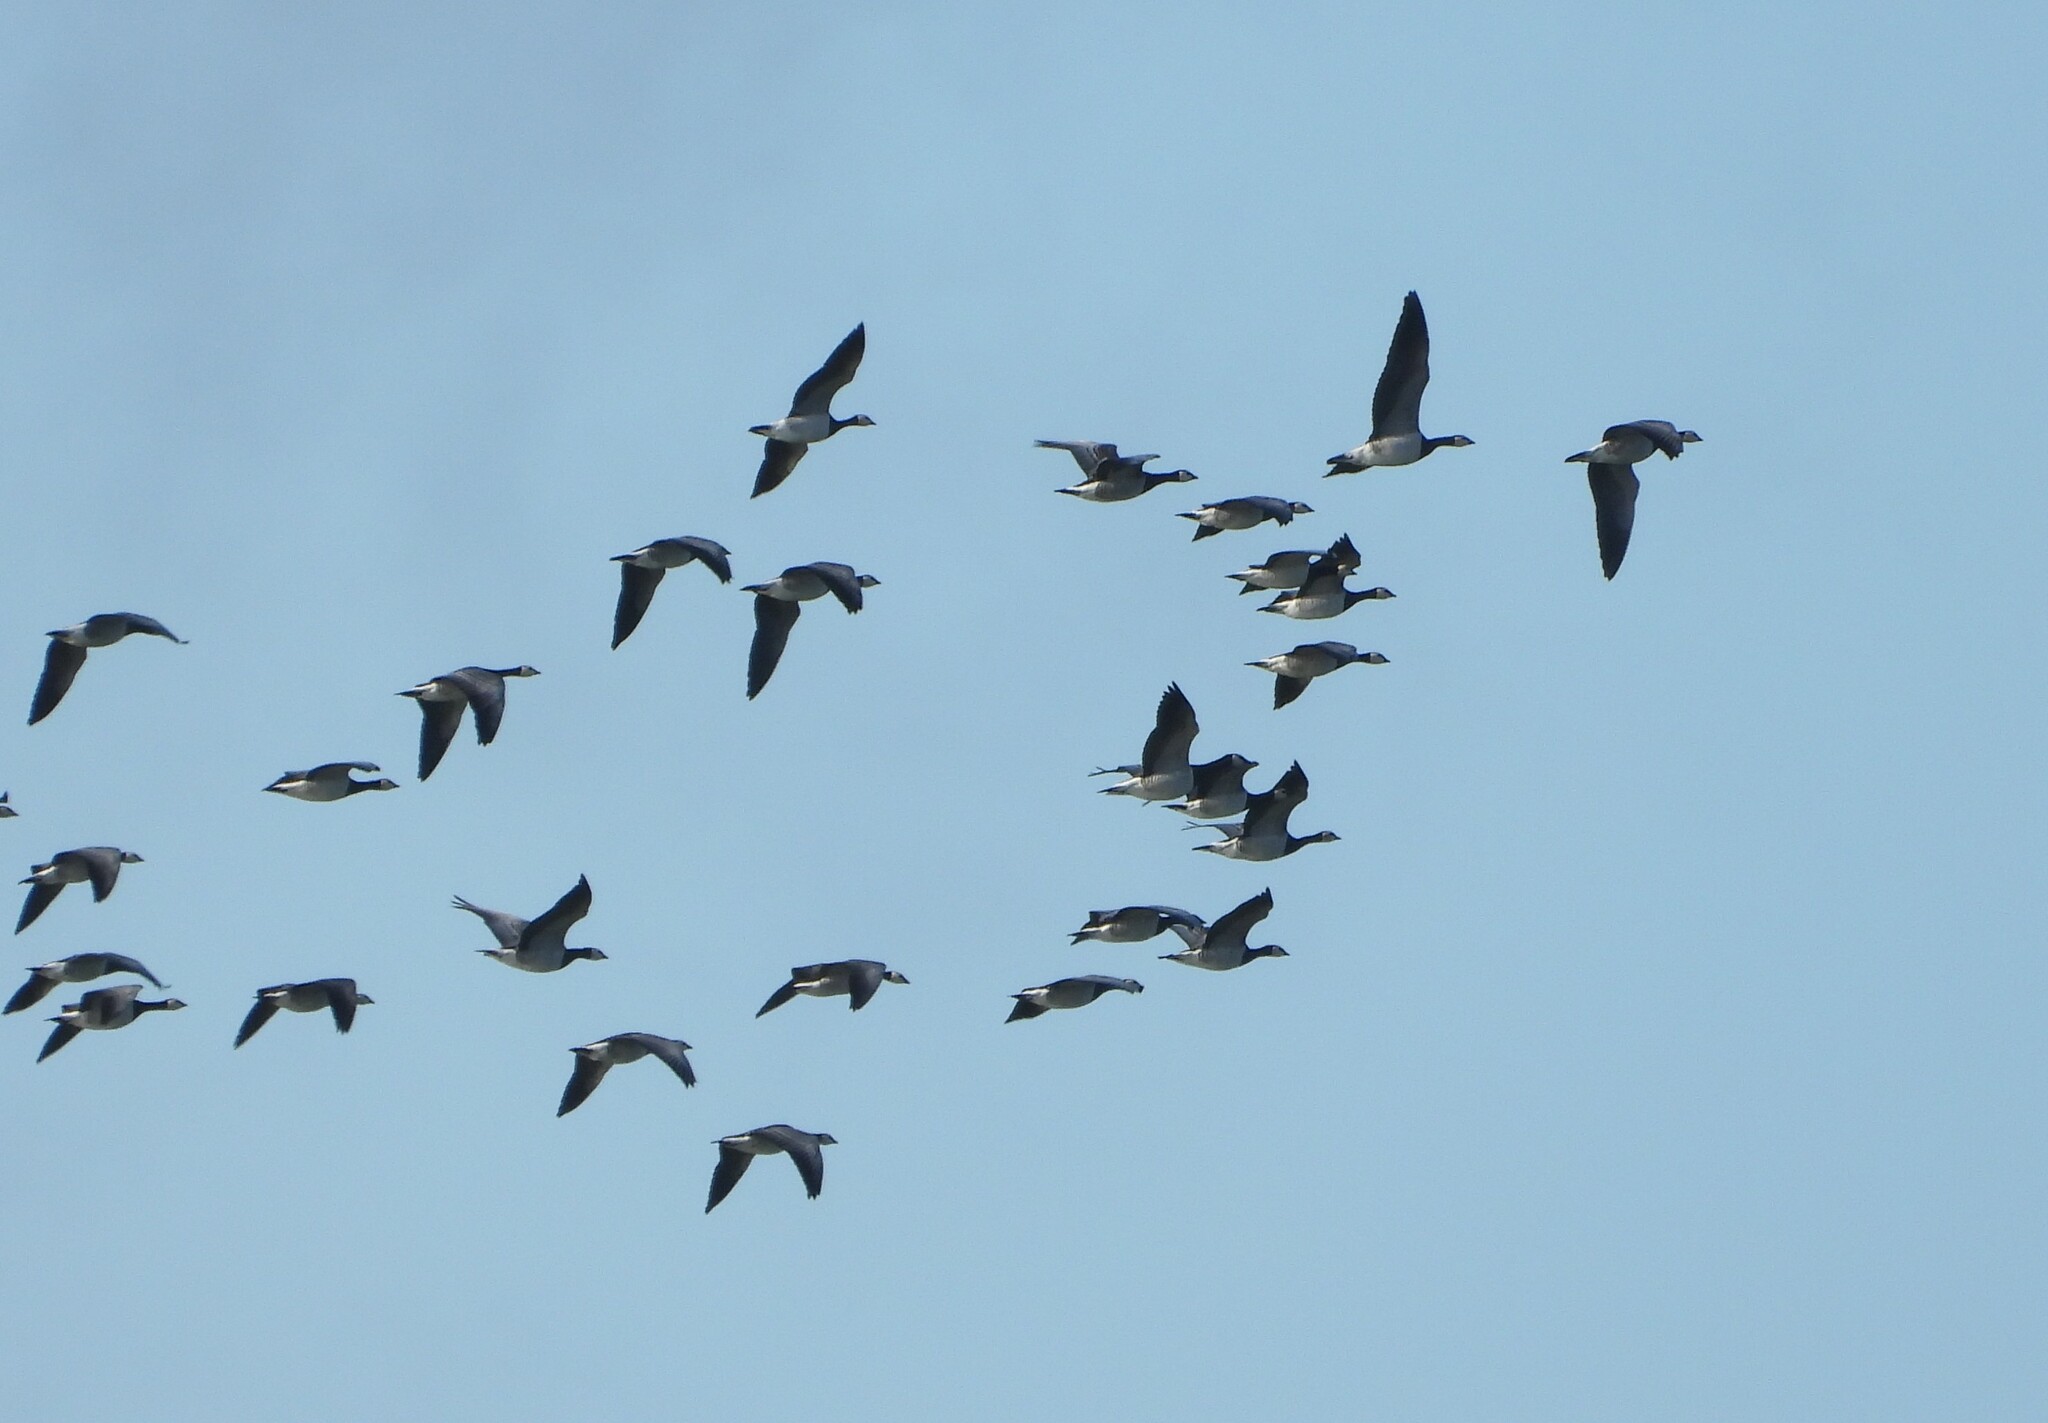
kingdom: Animalia
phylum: Chordata
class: Aves
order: Anseriformes
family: Anatidae
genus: Branta
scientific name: Branta leucopsis
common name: Barnacle goose
